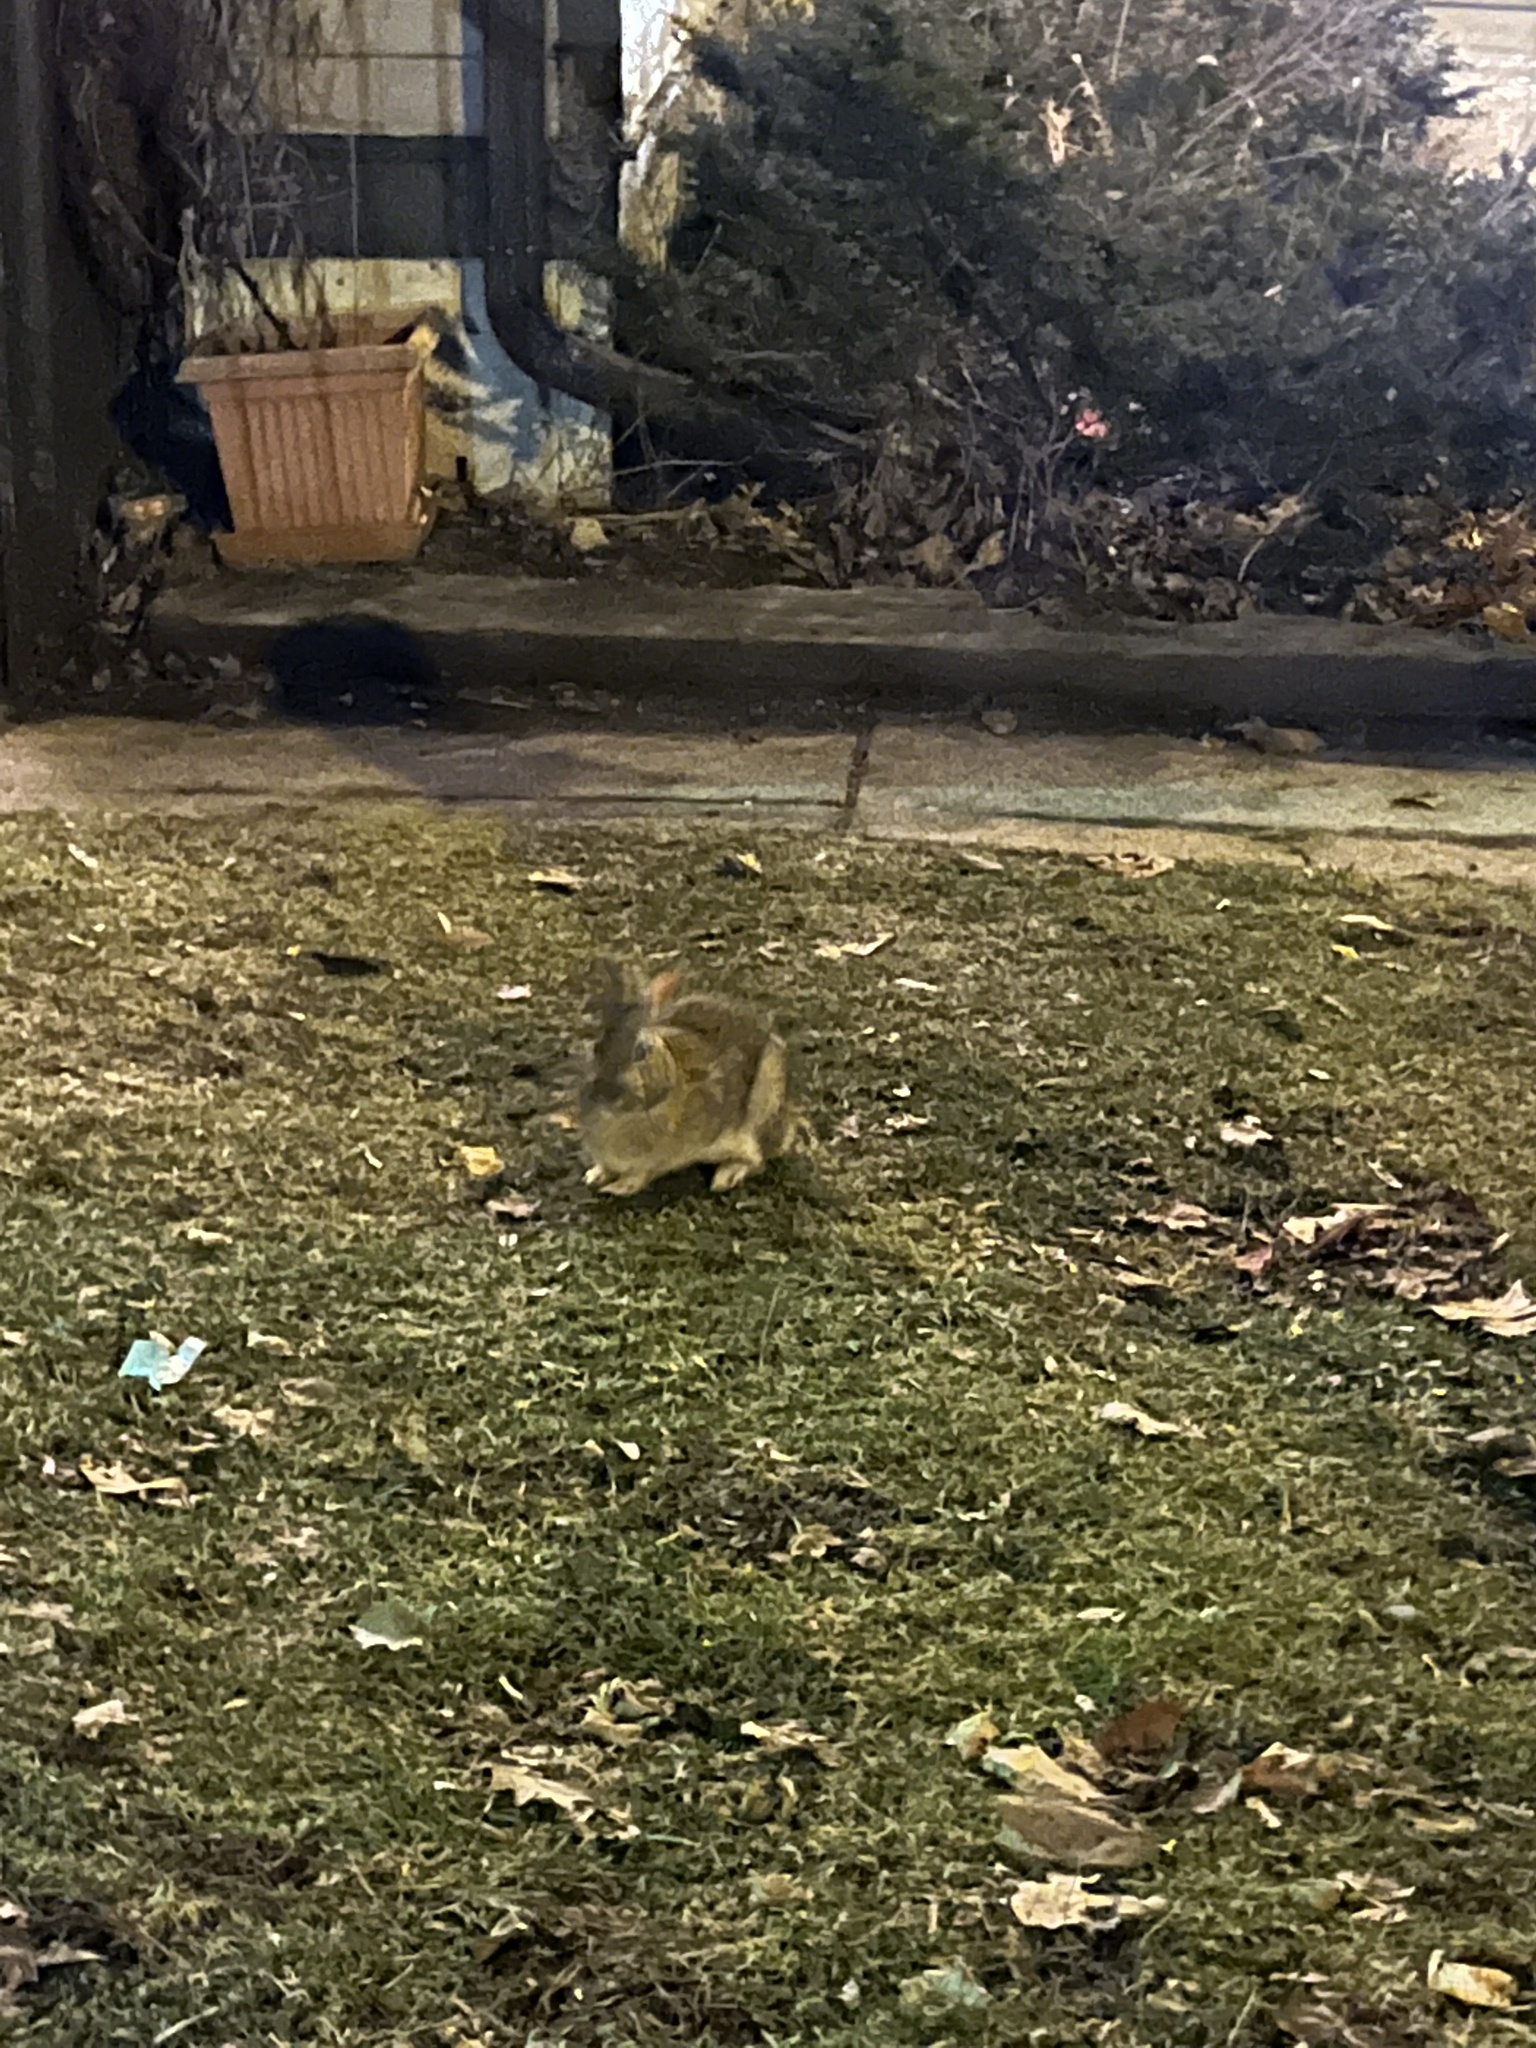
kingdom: Animalia
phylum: Chordata
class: Mammalia
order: Lagomorpha
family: Leporidae
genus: Sylvilagus
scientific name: Sylvilagus floridanus
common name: Eastern cottontail
